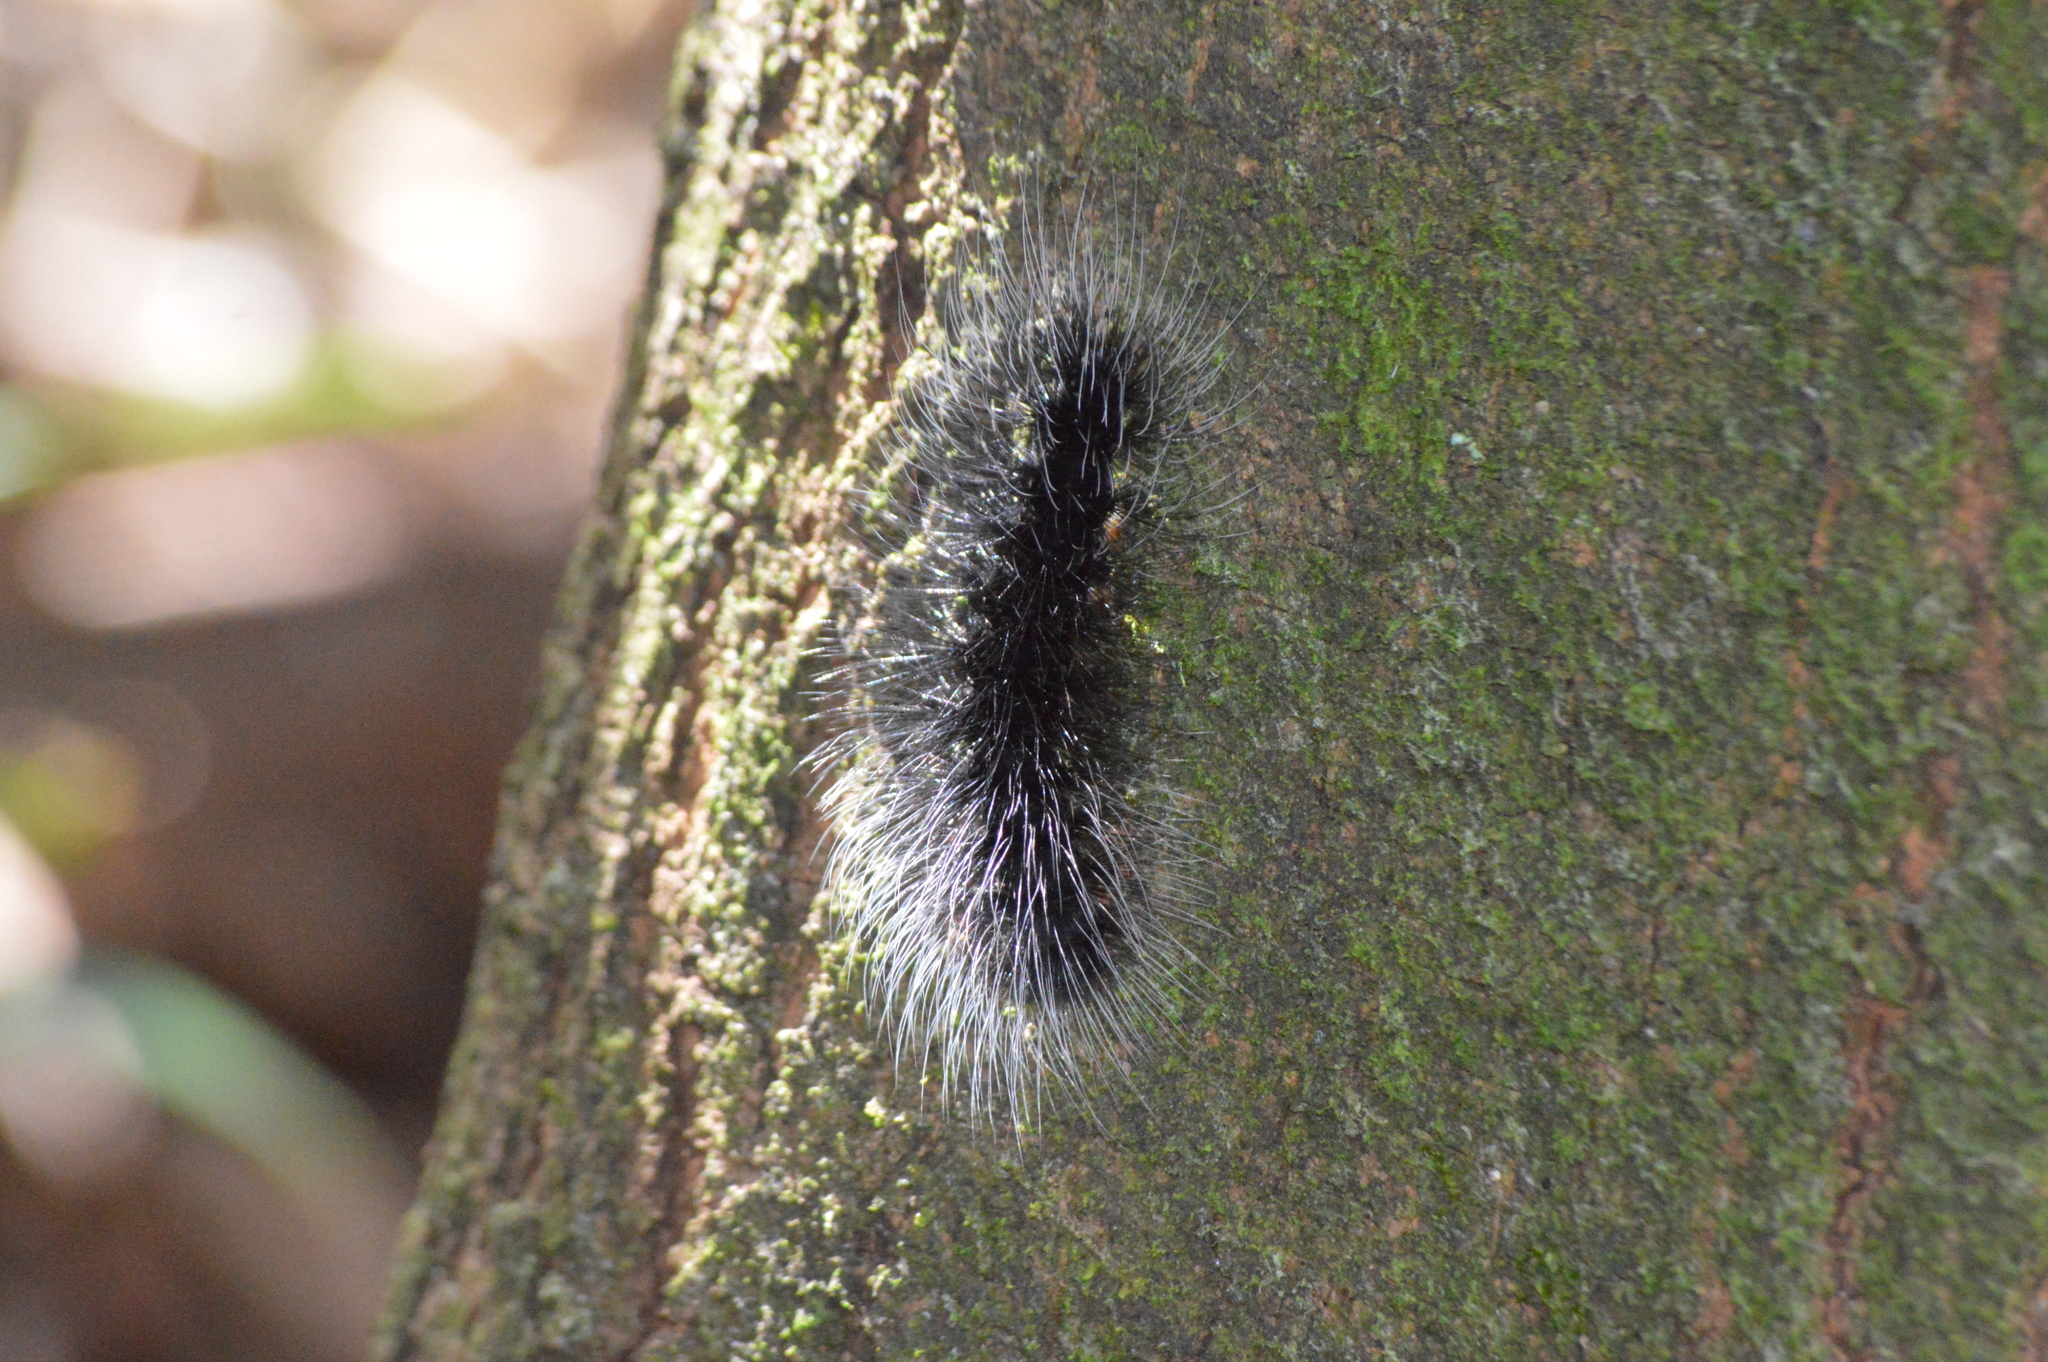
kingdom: Animalia
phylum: Arthropoda
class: Insecta
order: Lepidoptera
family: Erebidae
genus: Apistosia
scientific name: Apistosia judas
